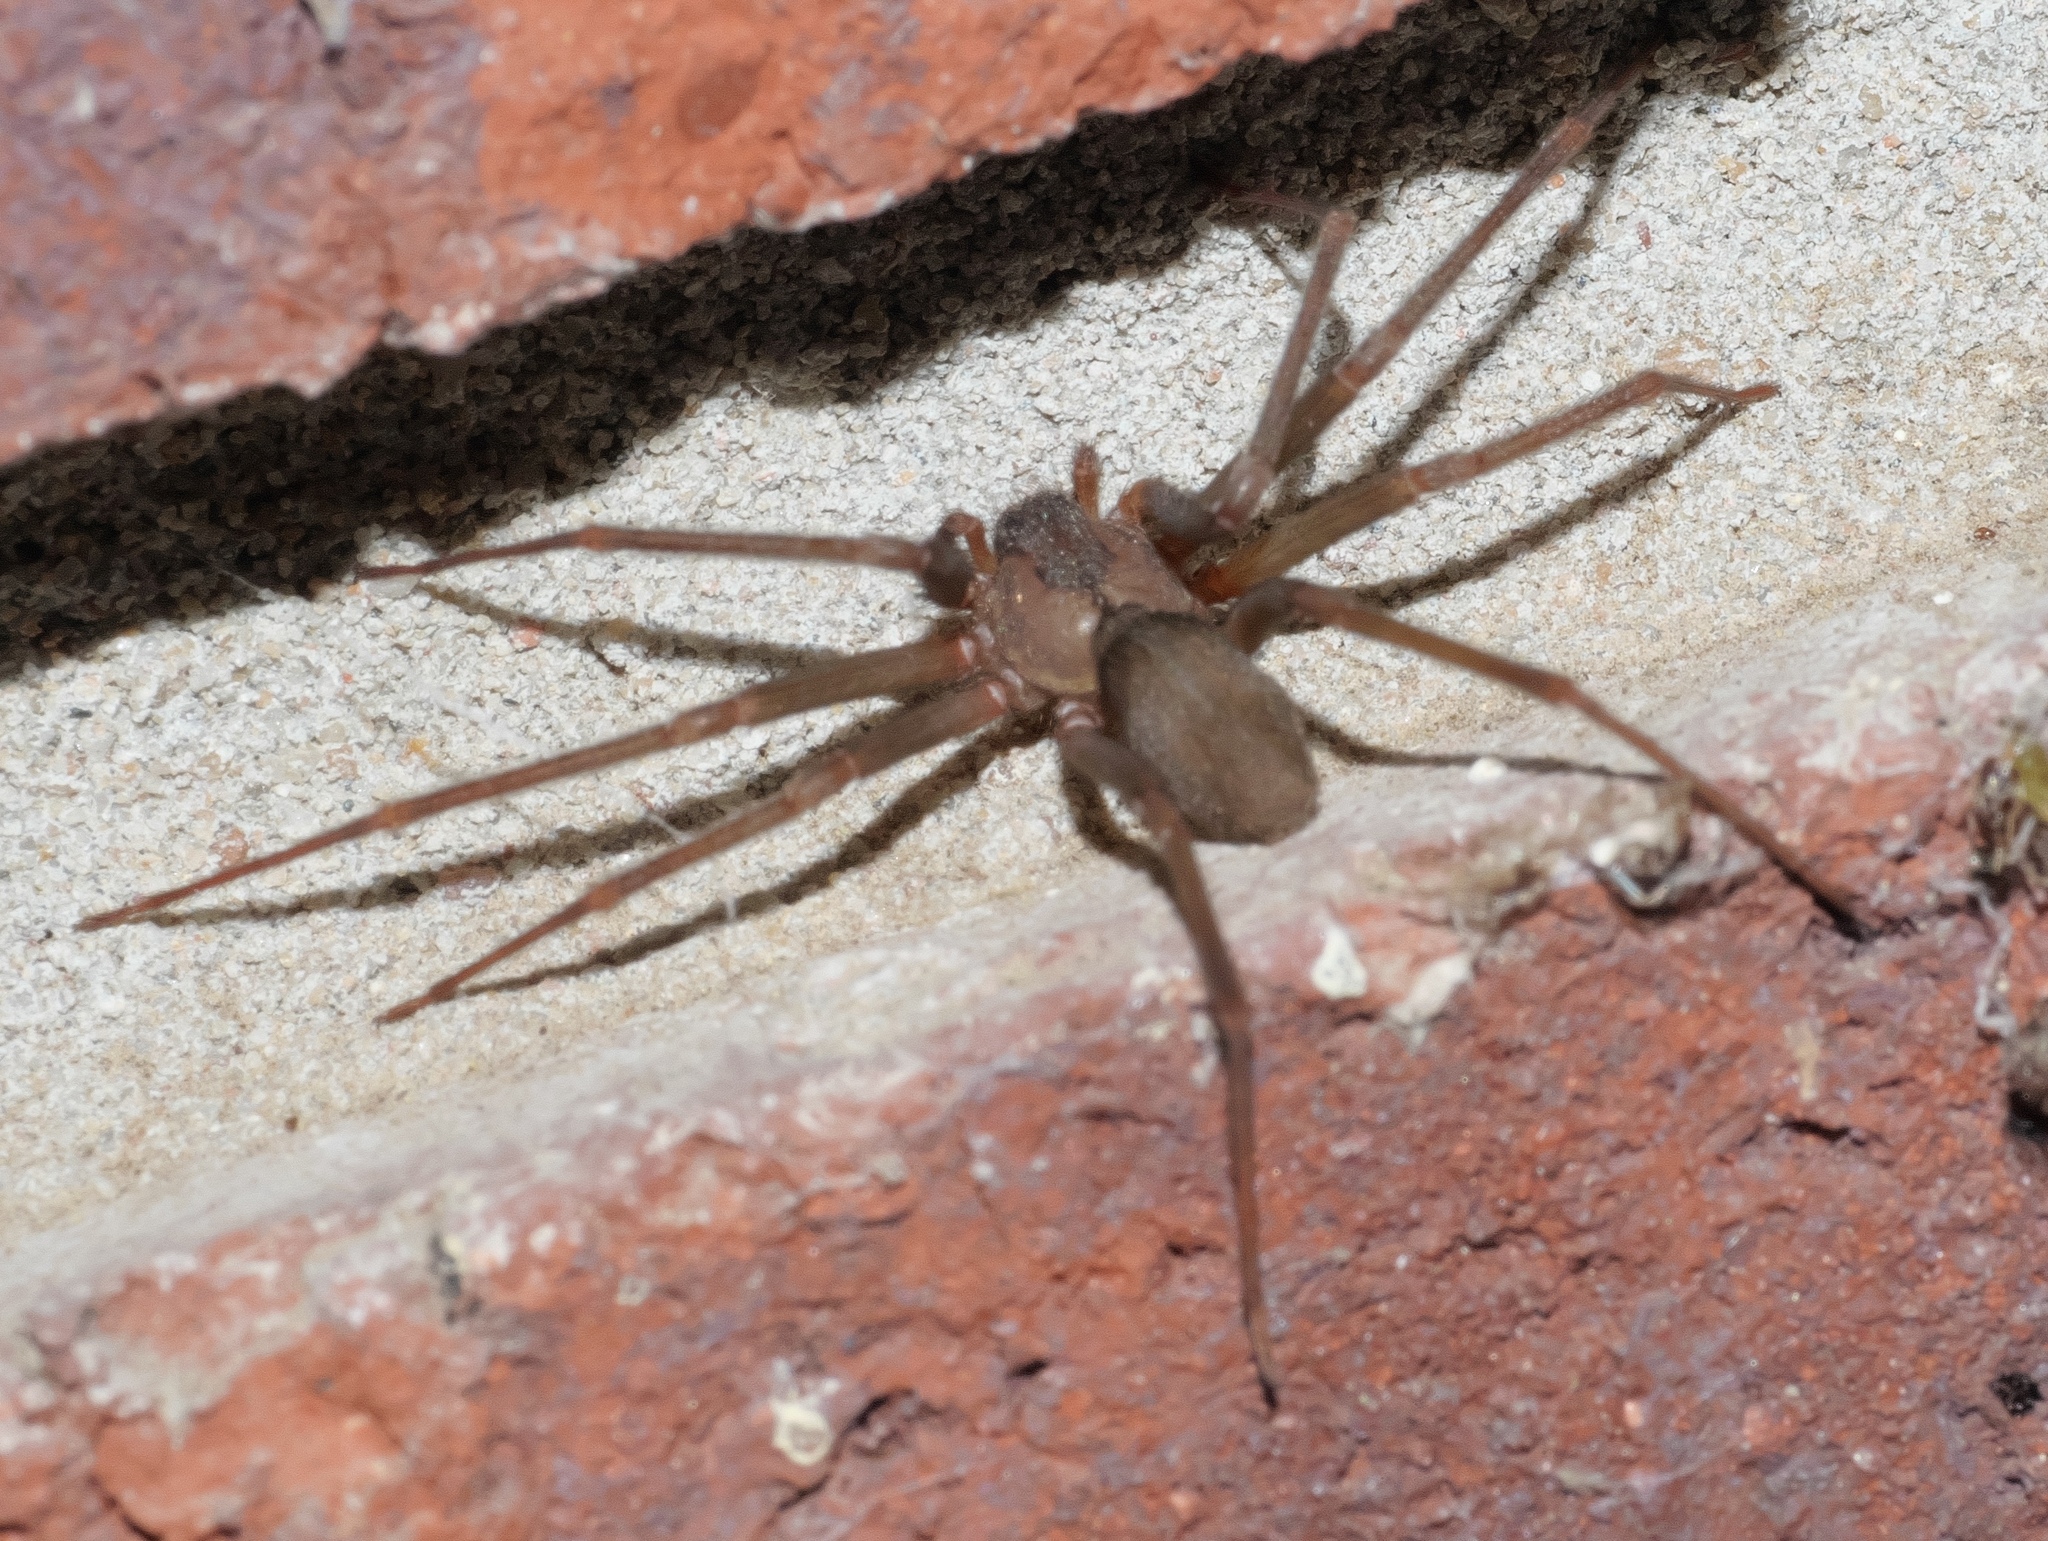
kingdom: Animalia
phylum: Arthropoda
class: Arachnida
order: Araneae
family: Sicariidae
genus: Loxosceles
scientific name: Loxosceles reclusa
